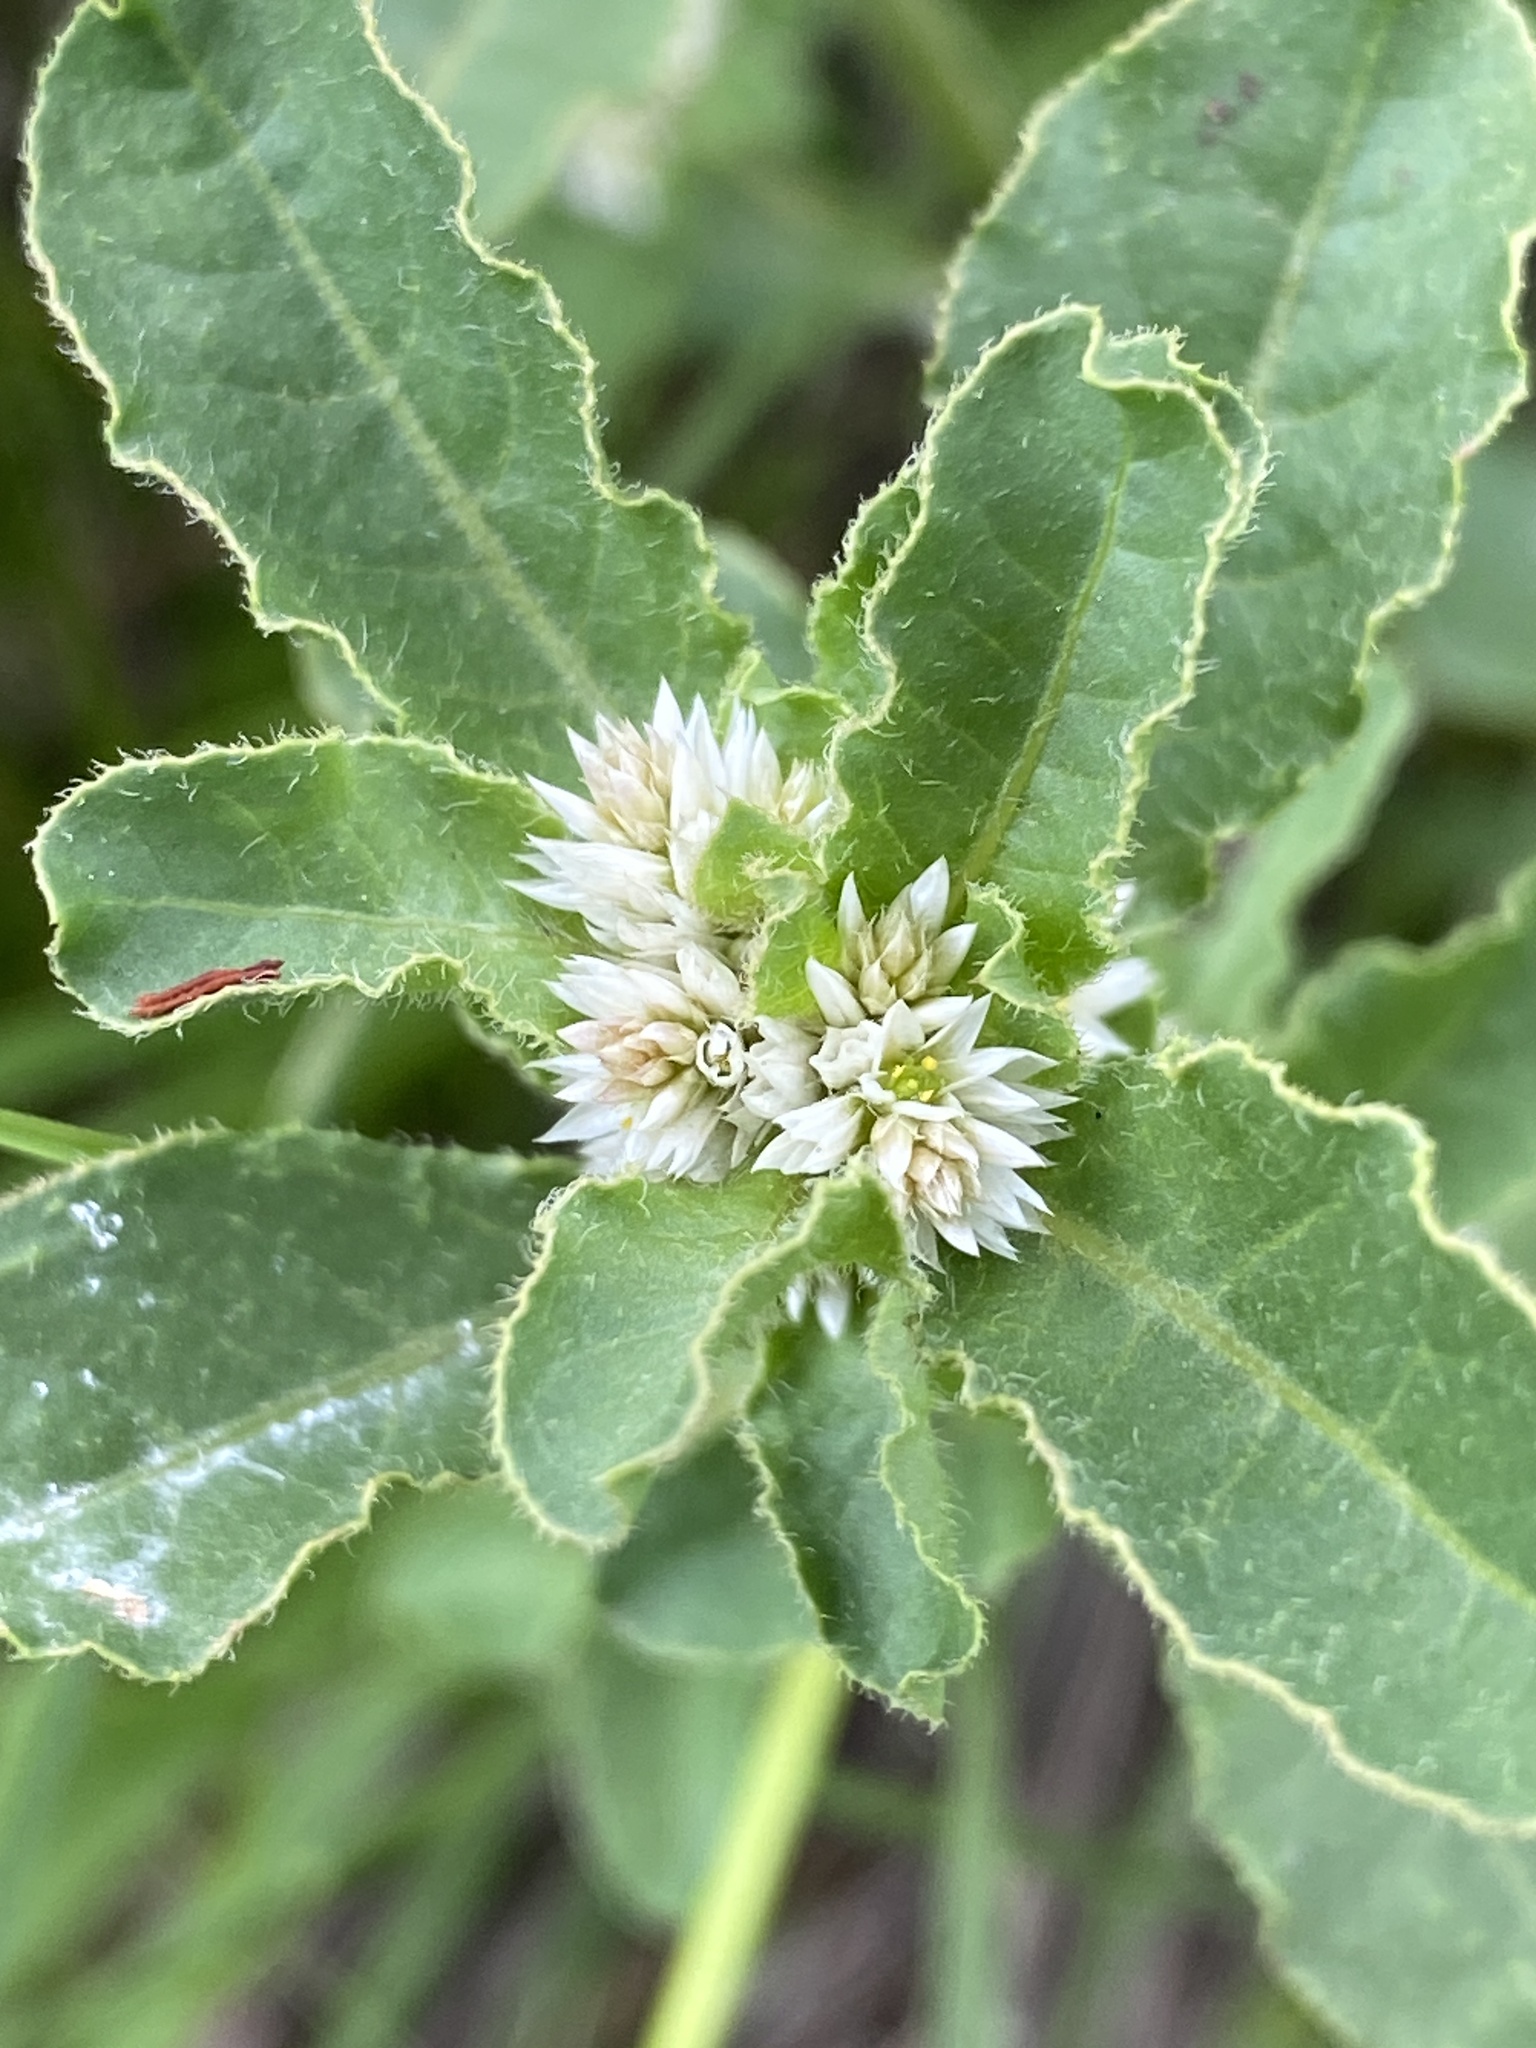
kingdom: Plantae
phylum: Tracheophyta
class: Magnoliopsida
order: Caryophyllales
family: Amaranthaceae
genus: Alternanthera
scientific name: Alternanthera nana
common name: Hairy joyweed
